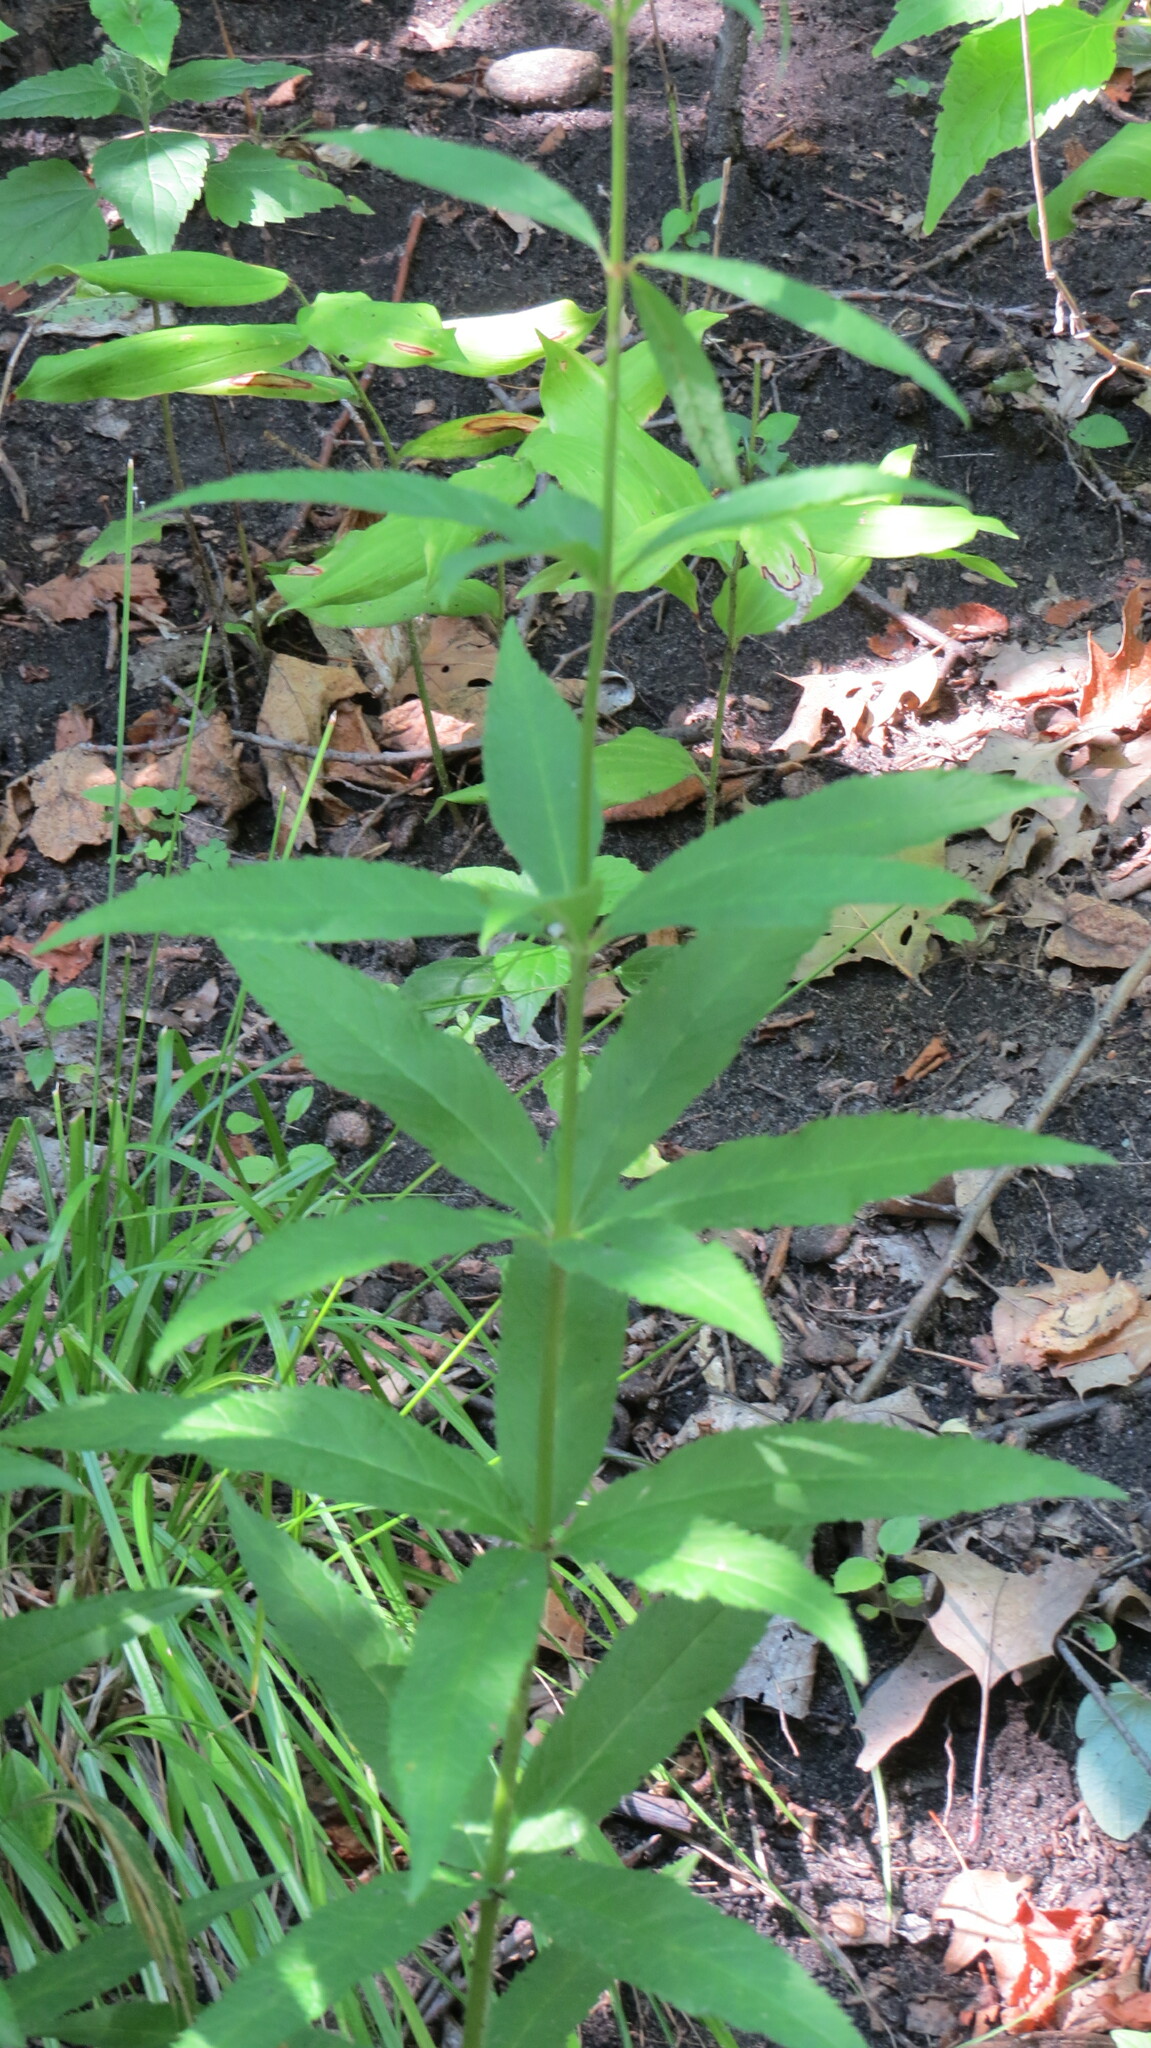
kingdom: Plantae
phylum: Tracheophyta
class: Magnoliopsida
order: Lamiales
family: Plantaginaceae
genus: Veronicastrum
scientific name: Veronicastrum virginicum
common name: Blackroot
